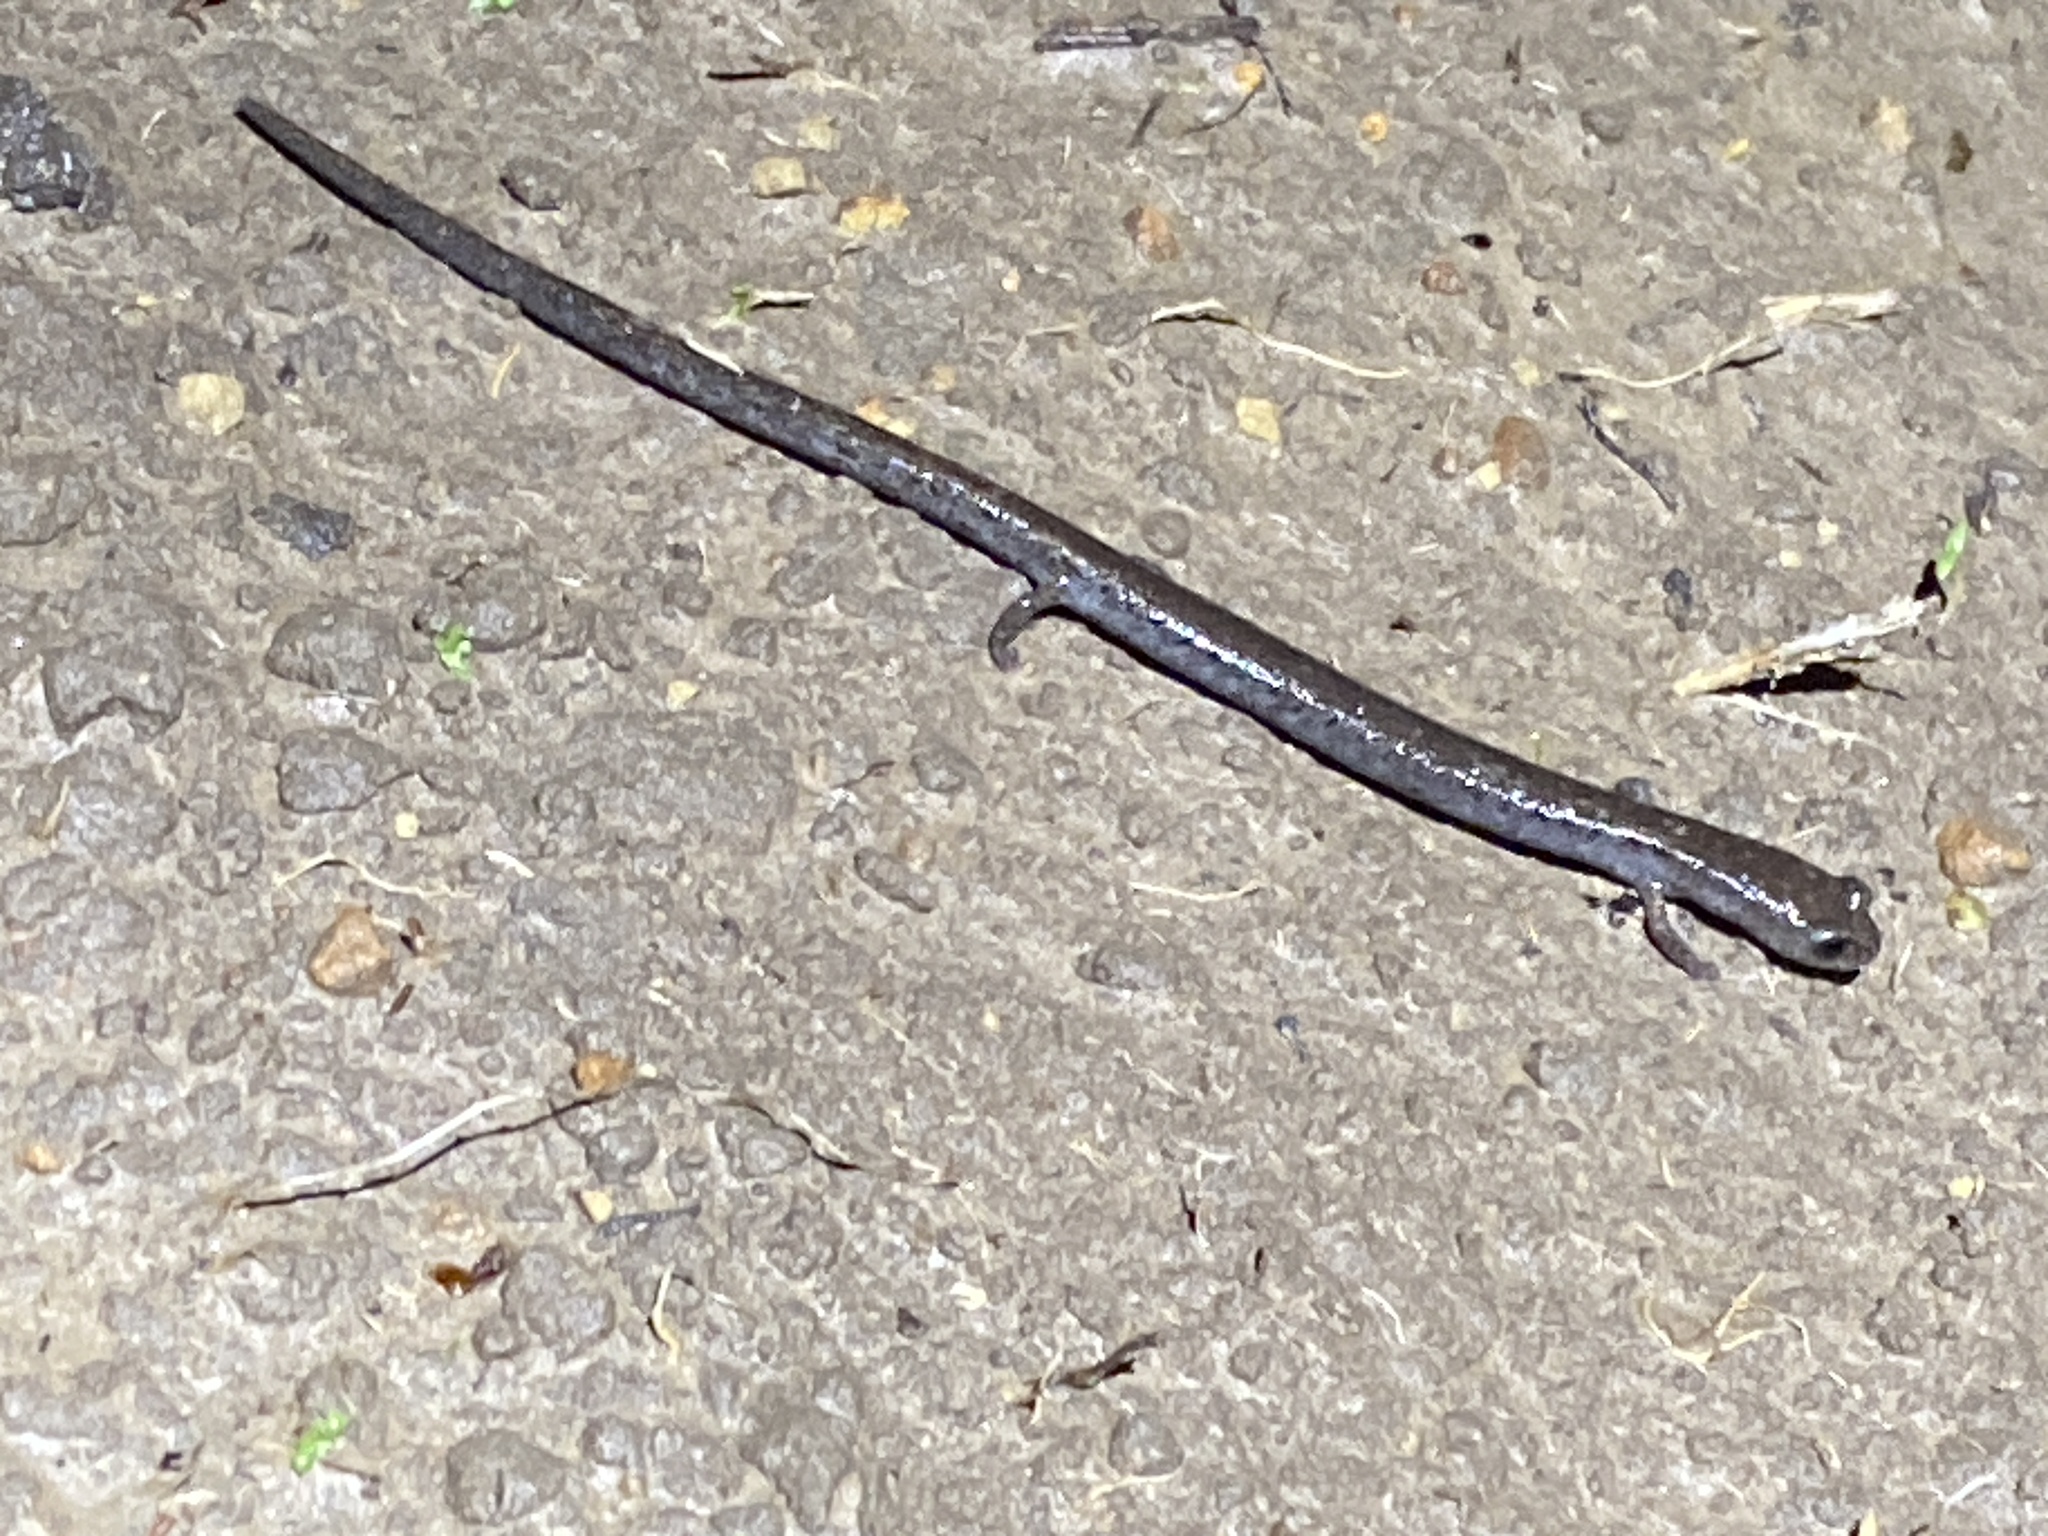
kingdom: Animalia
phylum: Chordata
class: Amphibia
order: Caudata
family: Plethodontidae
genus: Batrachoseps
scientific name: Batrachoseps attenuatus
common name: California slender salamander
